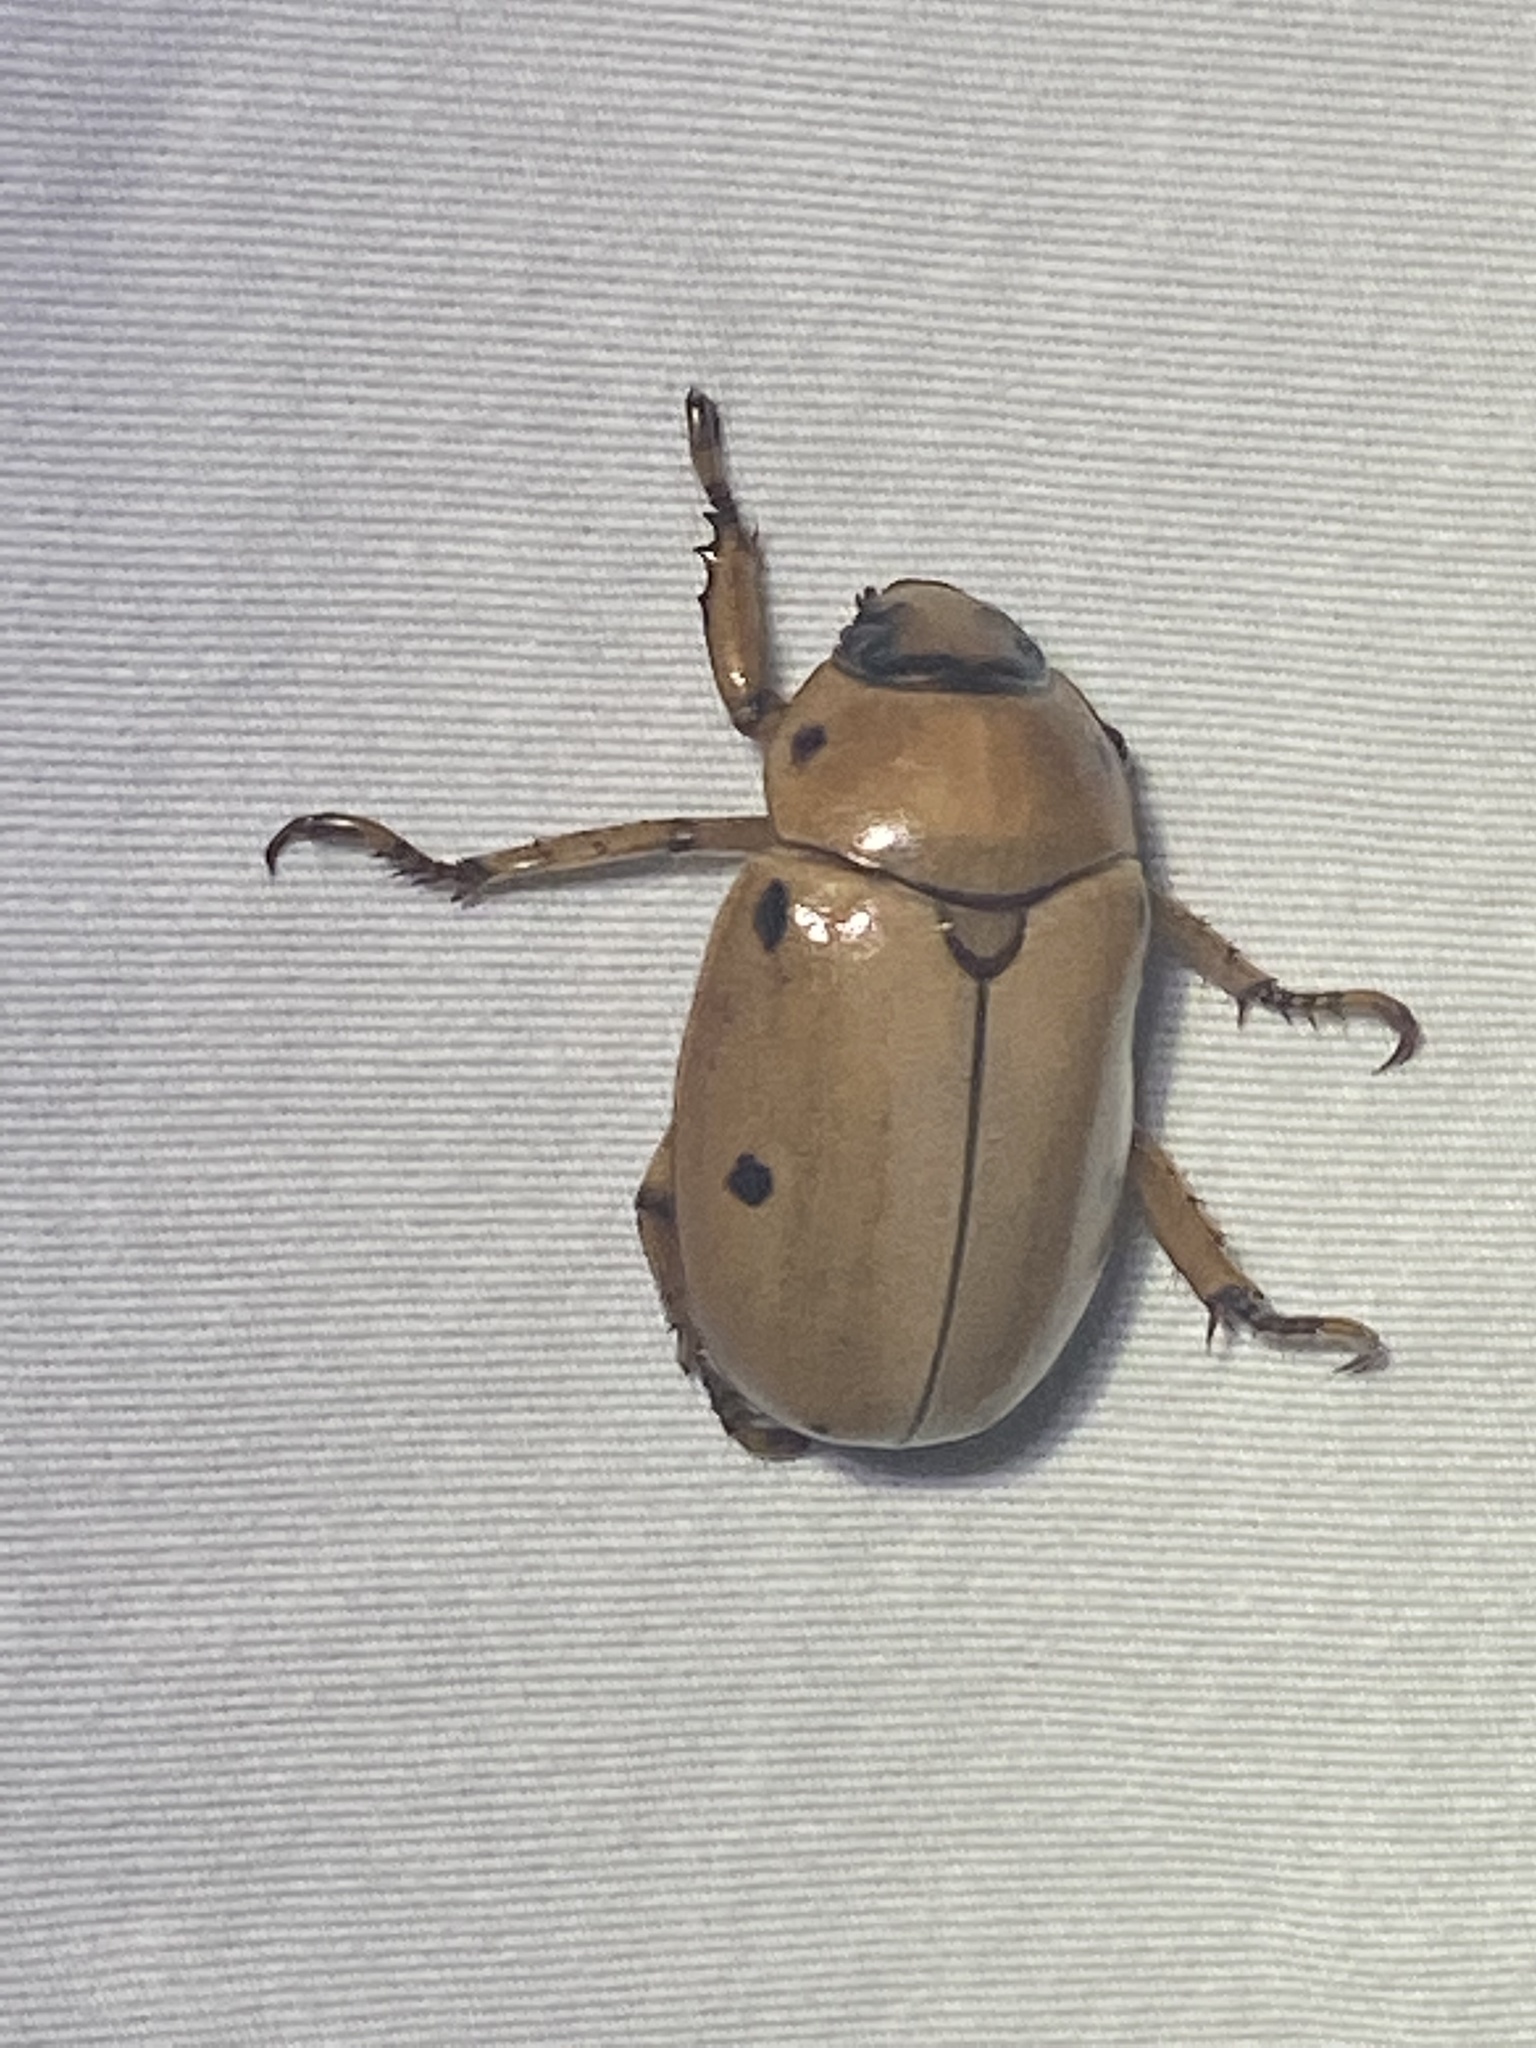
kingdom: Animalia
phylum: Arthropoda
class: Insecta
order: Coleoptera
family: Scarabaeidae
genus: Pelidnota
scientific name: Pelidnota punctata
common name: Grapevine beetle
